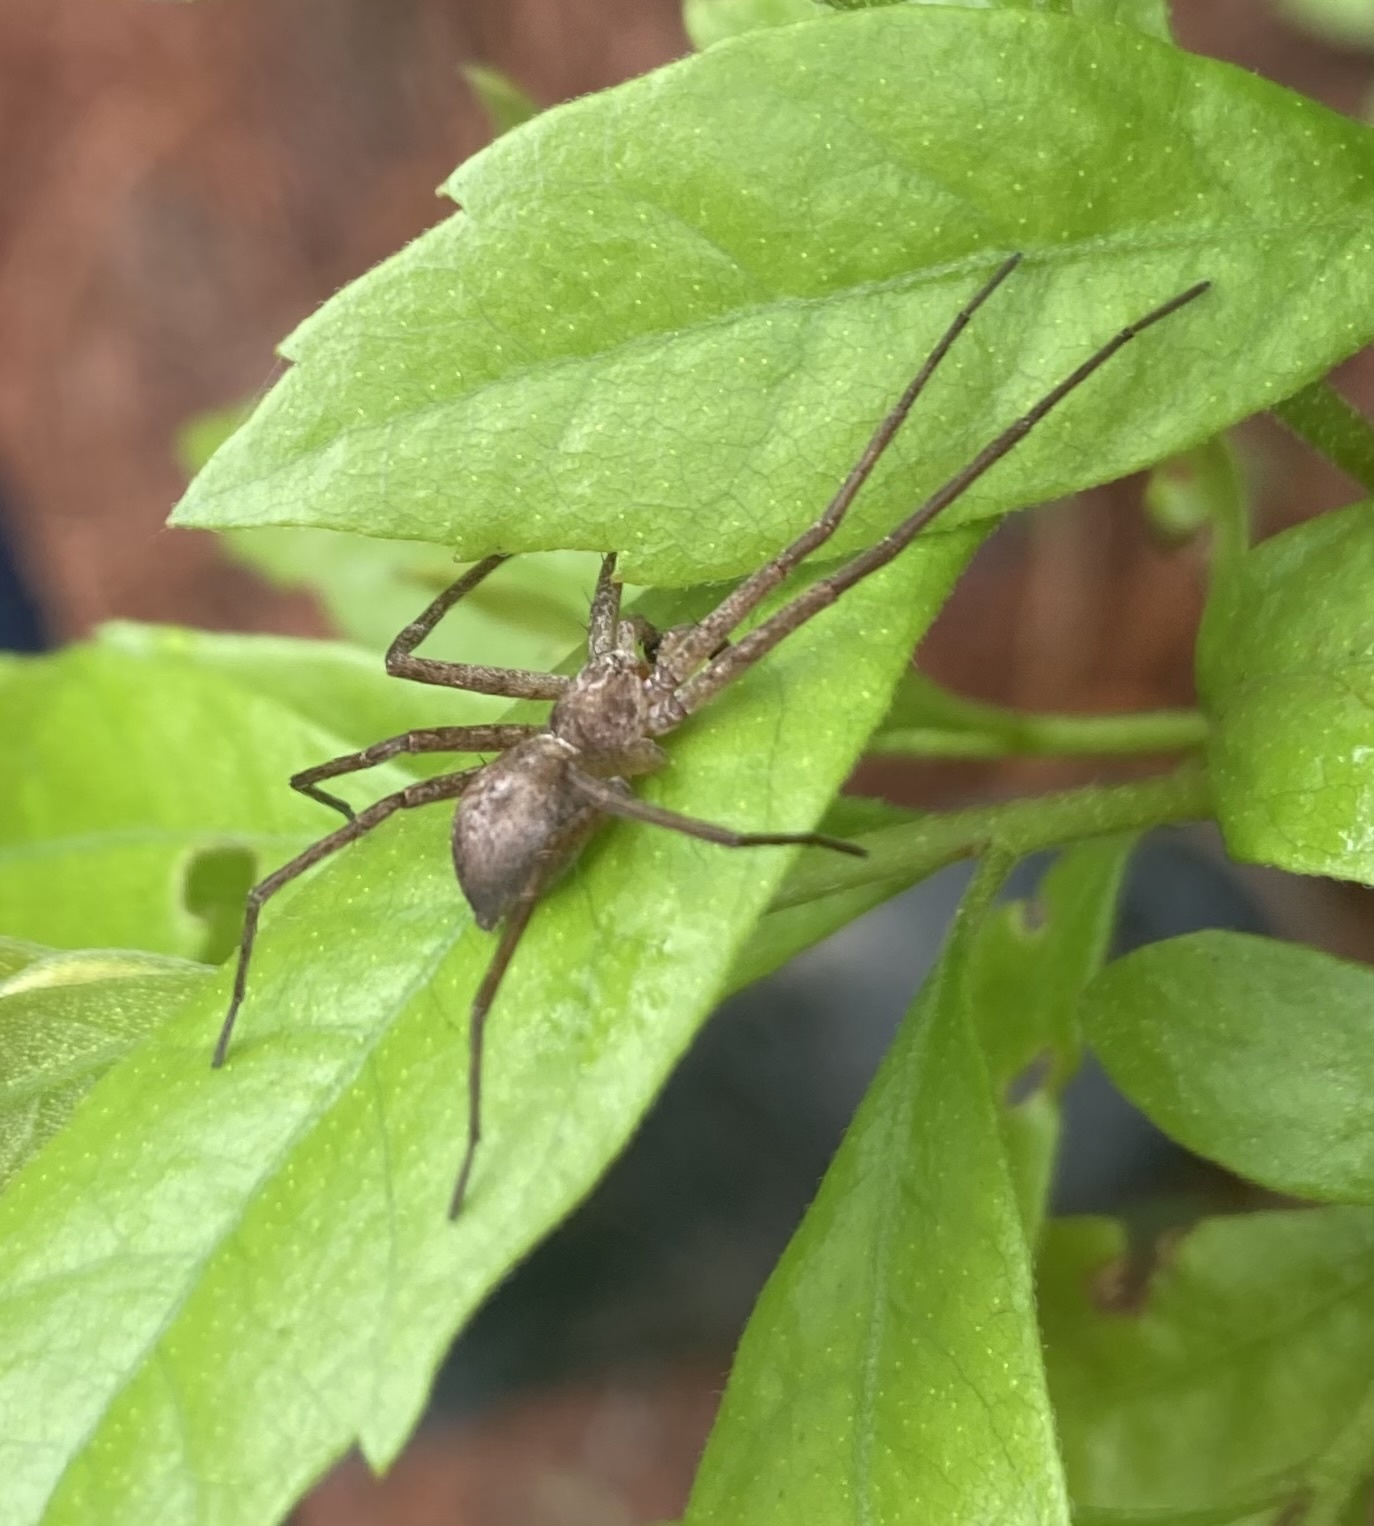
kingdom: Animalia
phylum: Arthropoda
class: Arachnida
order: Araneae
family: Philodromidae
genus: Philodromus
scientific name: Philodromus
